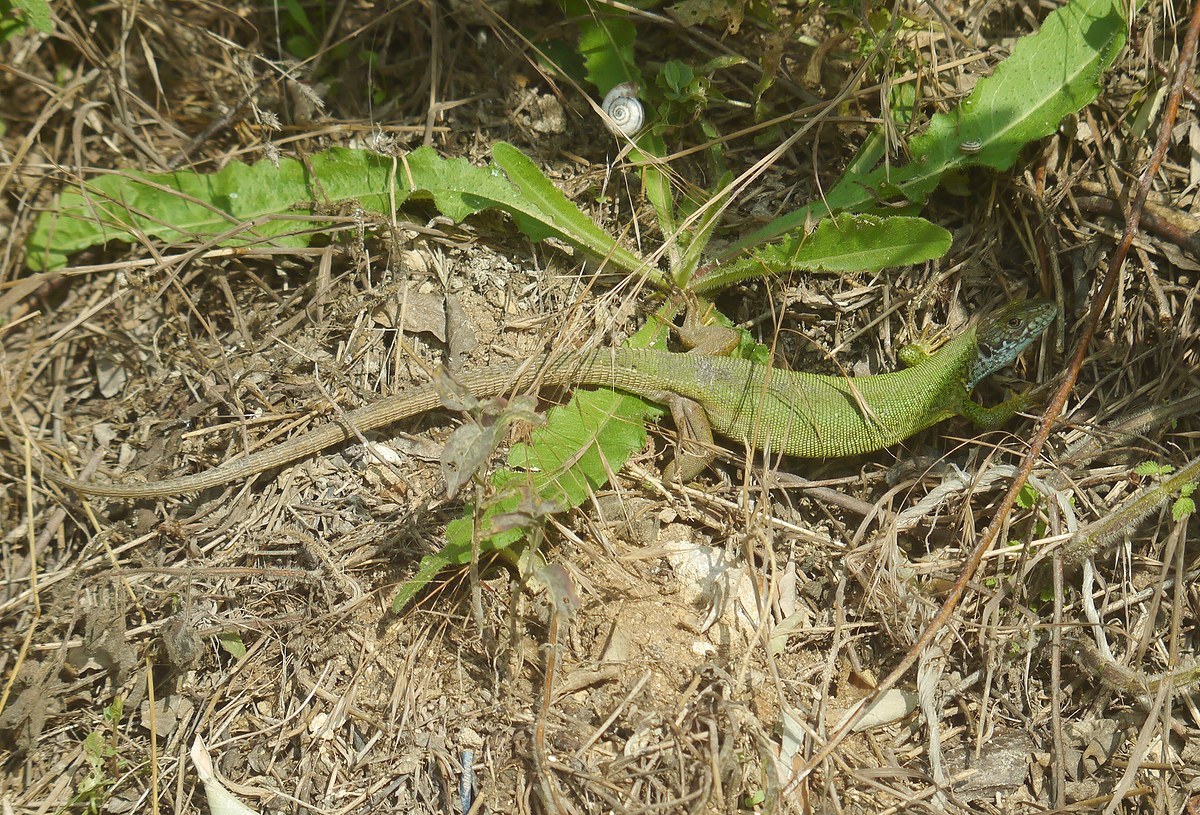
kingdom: Animalia
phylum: Chordata
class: Squamata
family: Lacertidae
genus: Lacerta
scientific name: Lacerta viridis
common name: European green lizard
